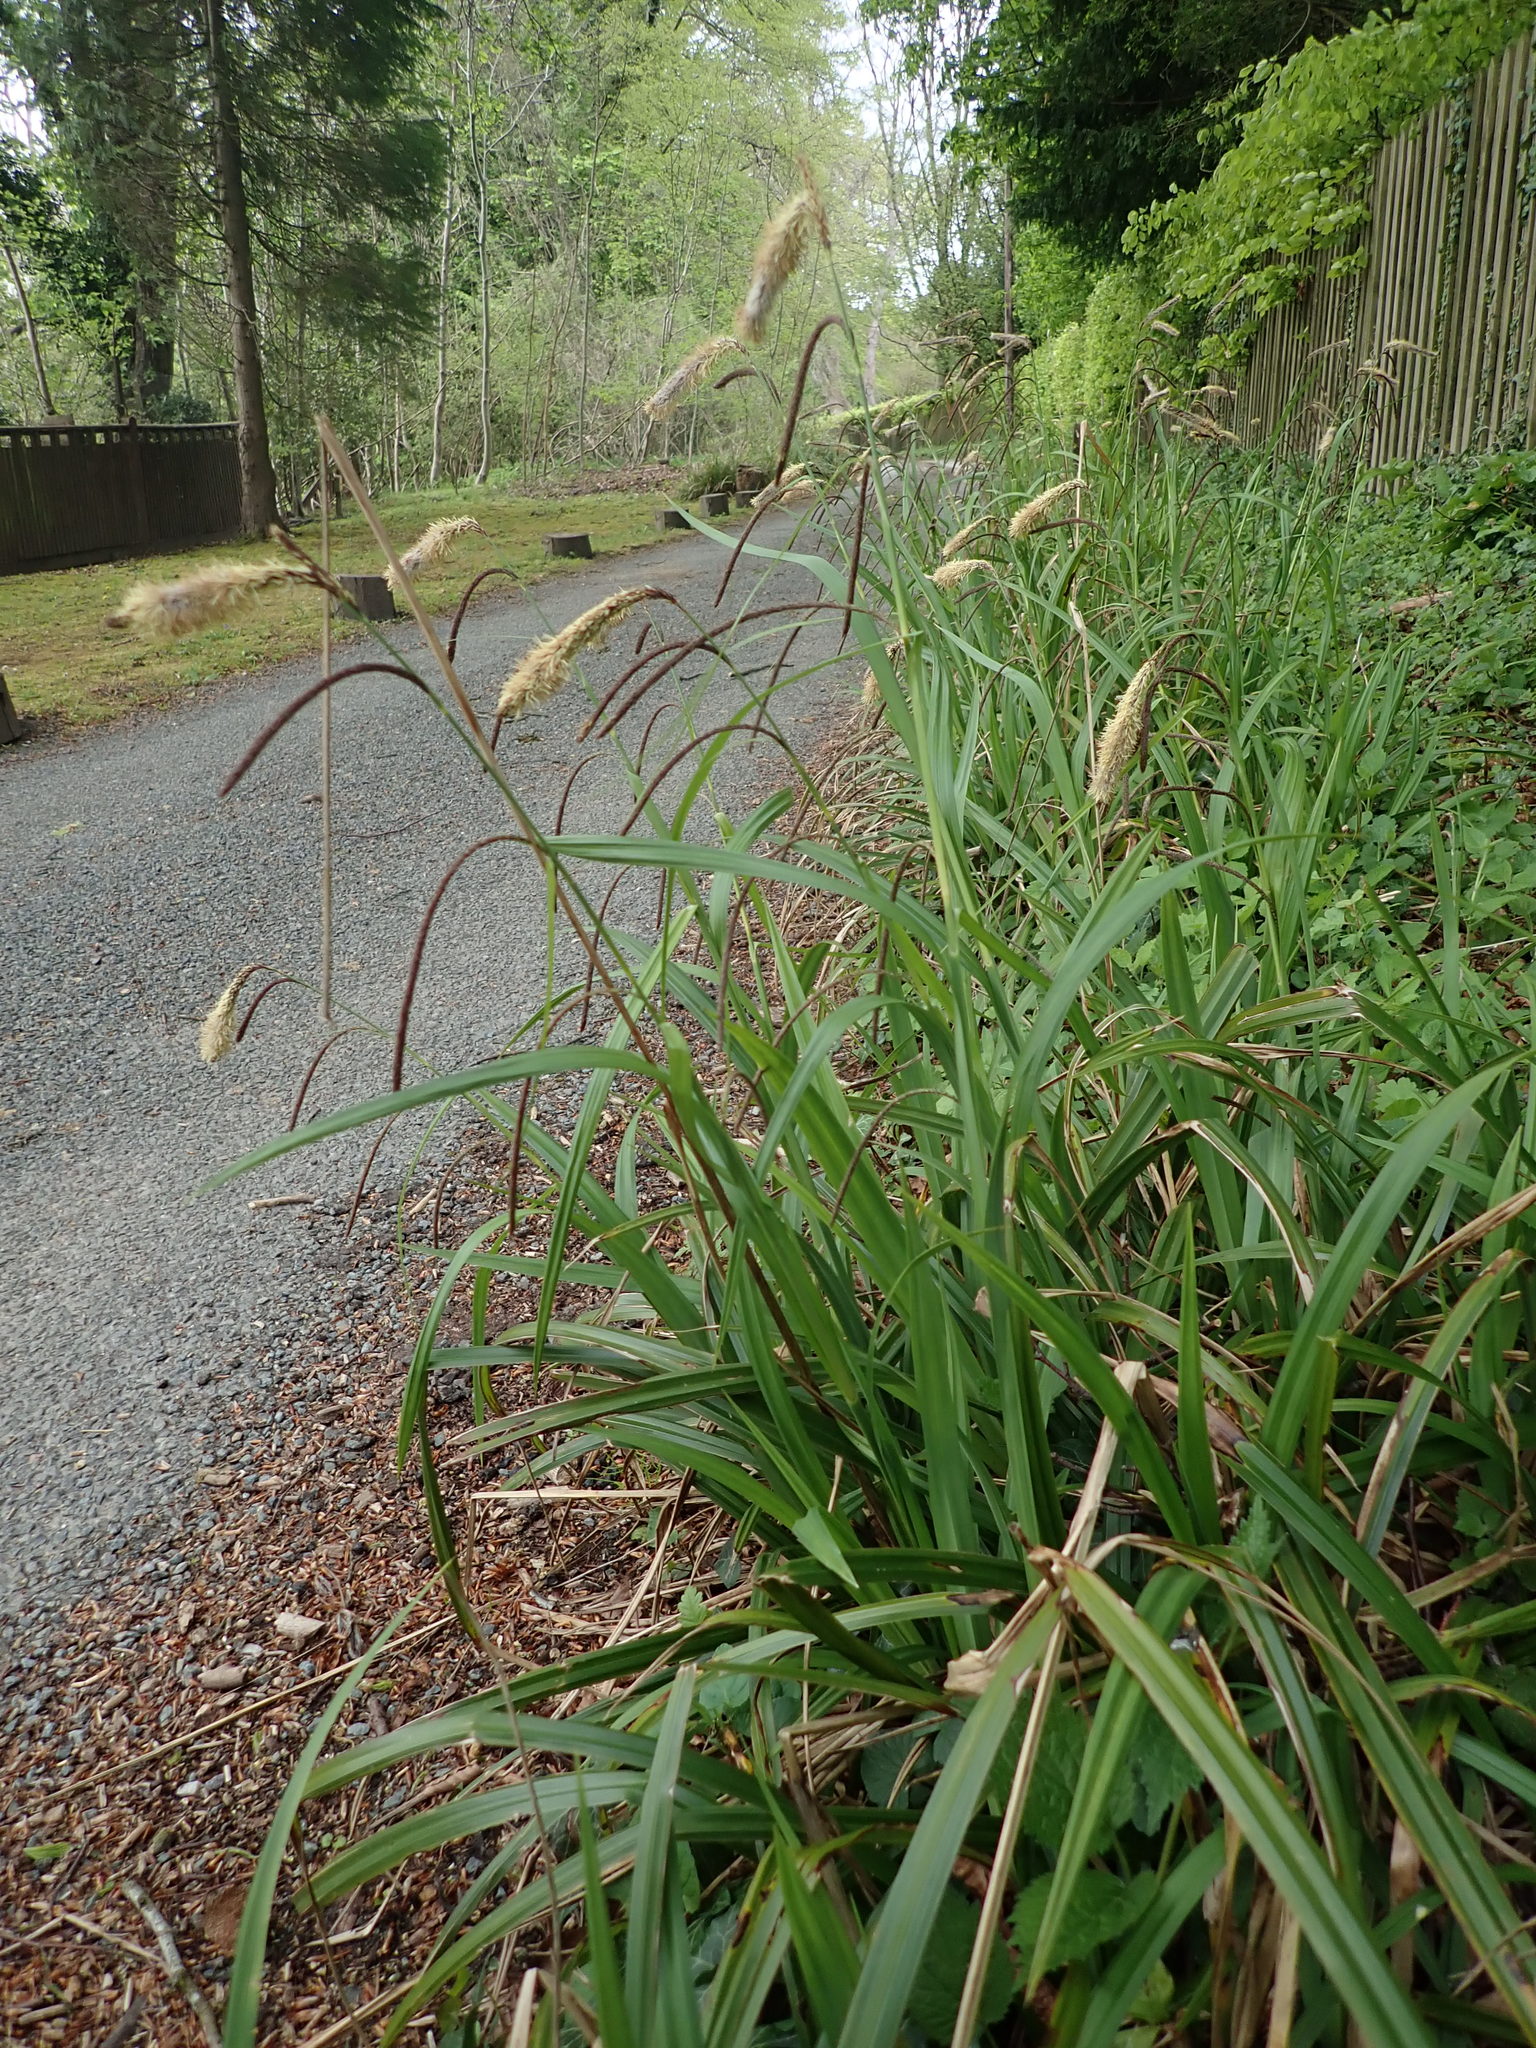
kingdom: Plantae
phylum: Tracheophyta
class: Liliopsida
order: Poales
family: Cyperaceae
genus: Carex
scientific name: Carex pendula
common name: Pendulous sedge
